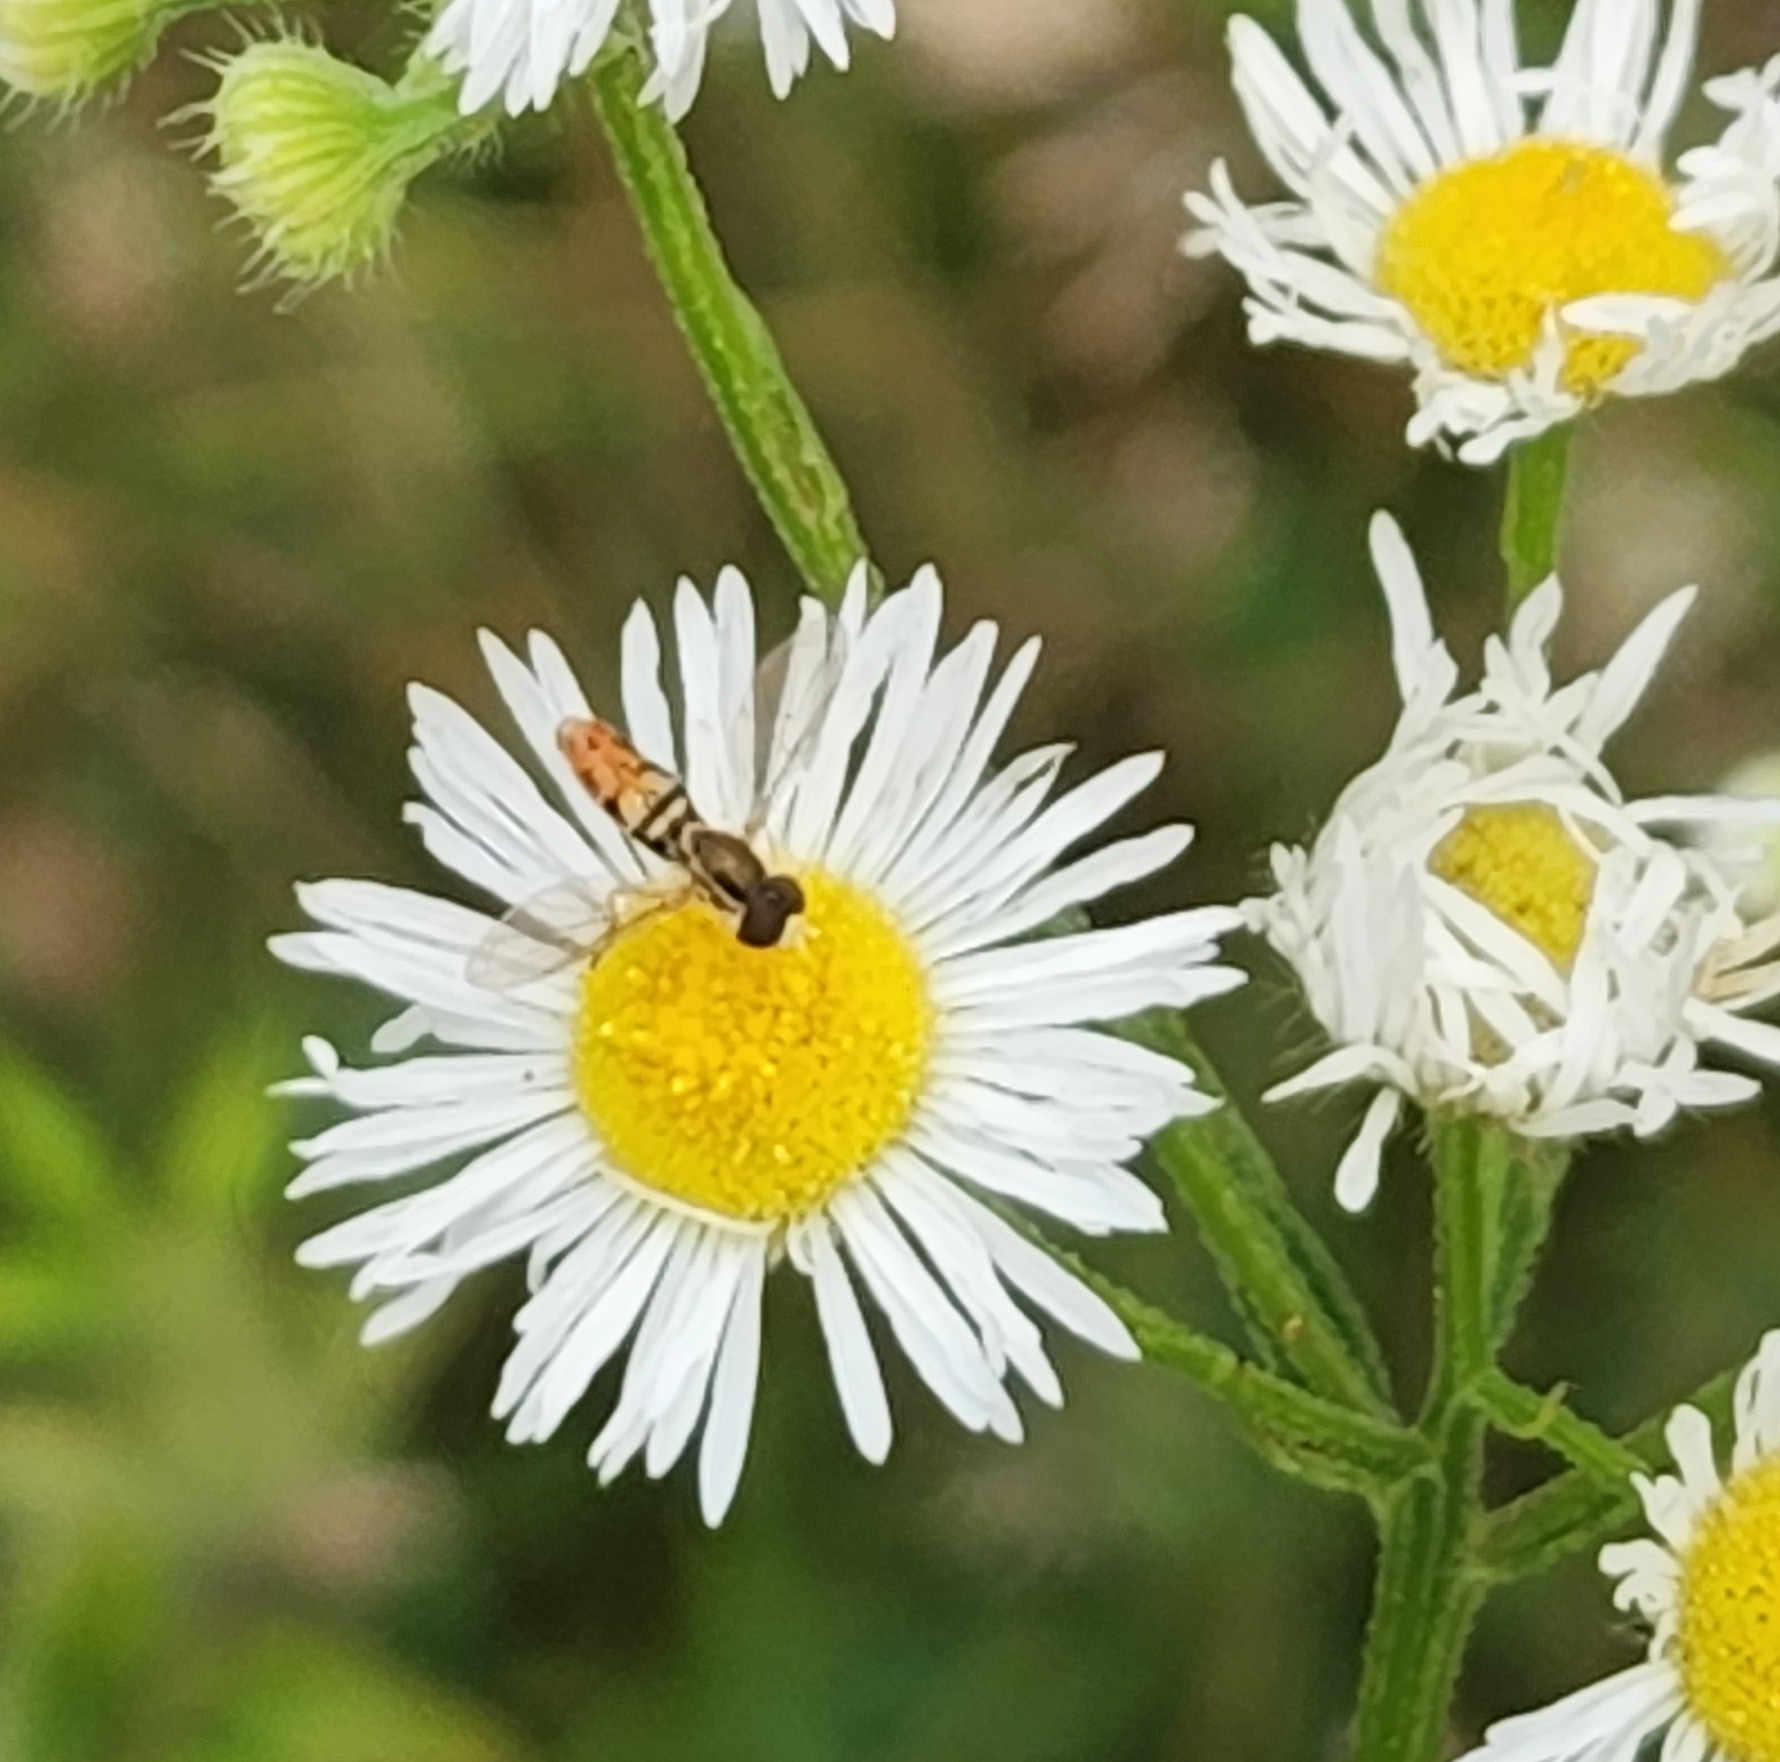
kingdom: Animalia
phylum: Arthropoda
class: Insecta
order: Diptera
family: Syrphidae
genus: Toxomerus
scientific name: Toxomerus marginatus
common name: Syrphid fly
